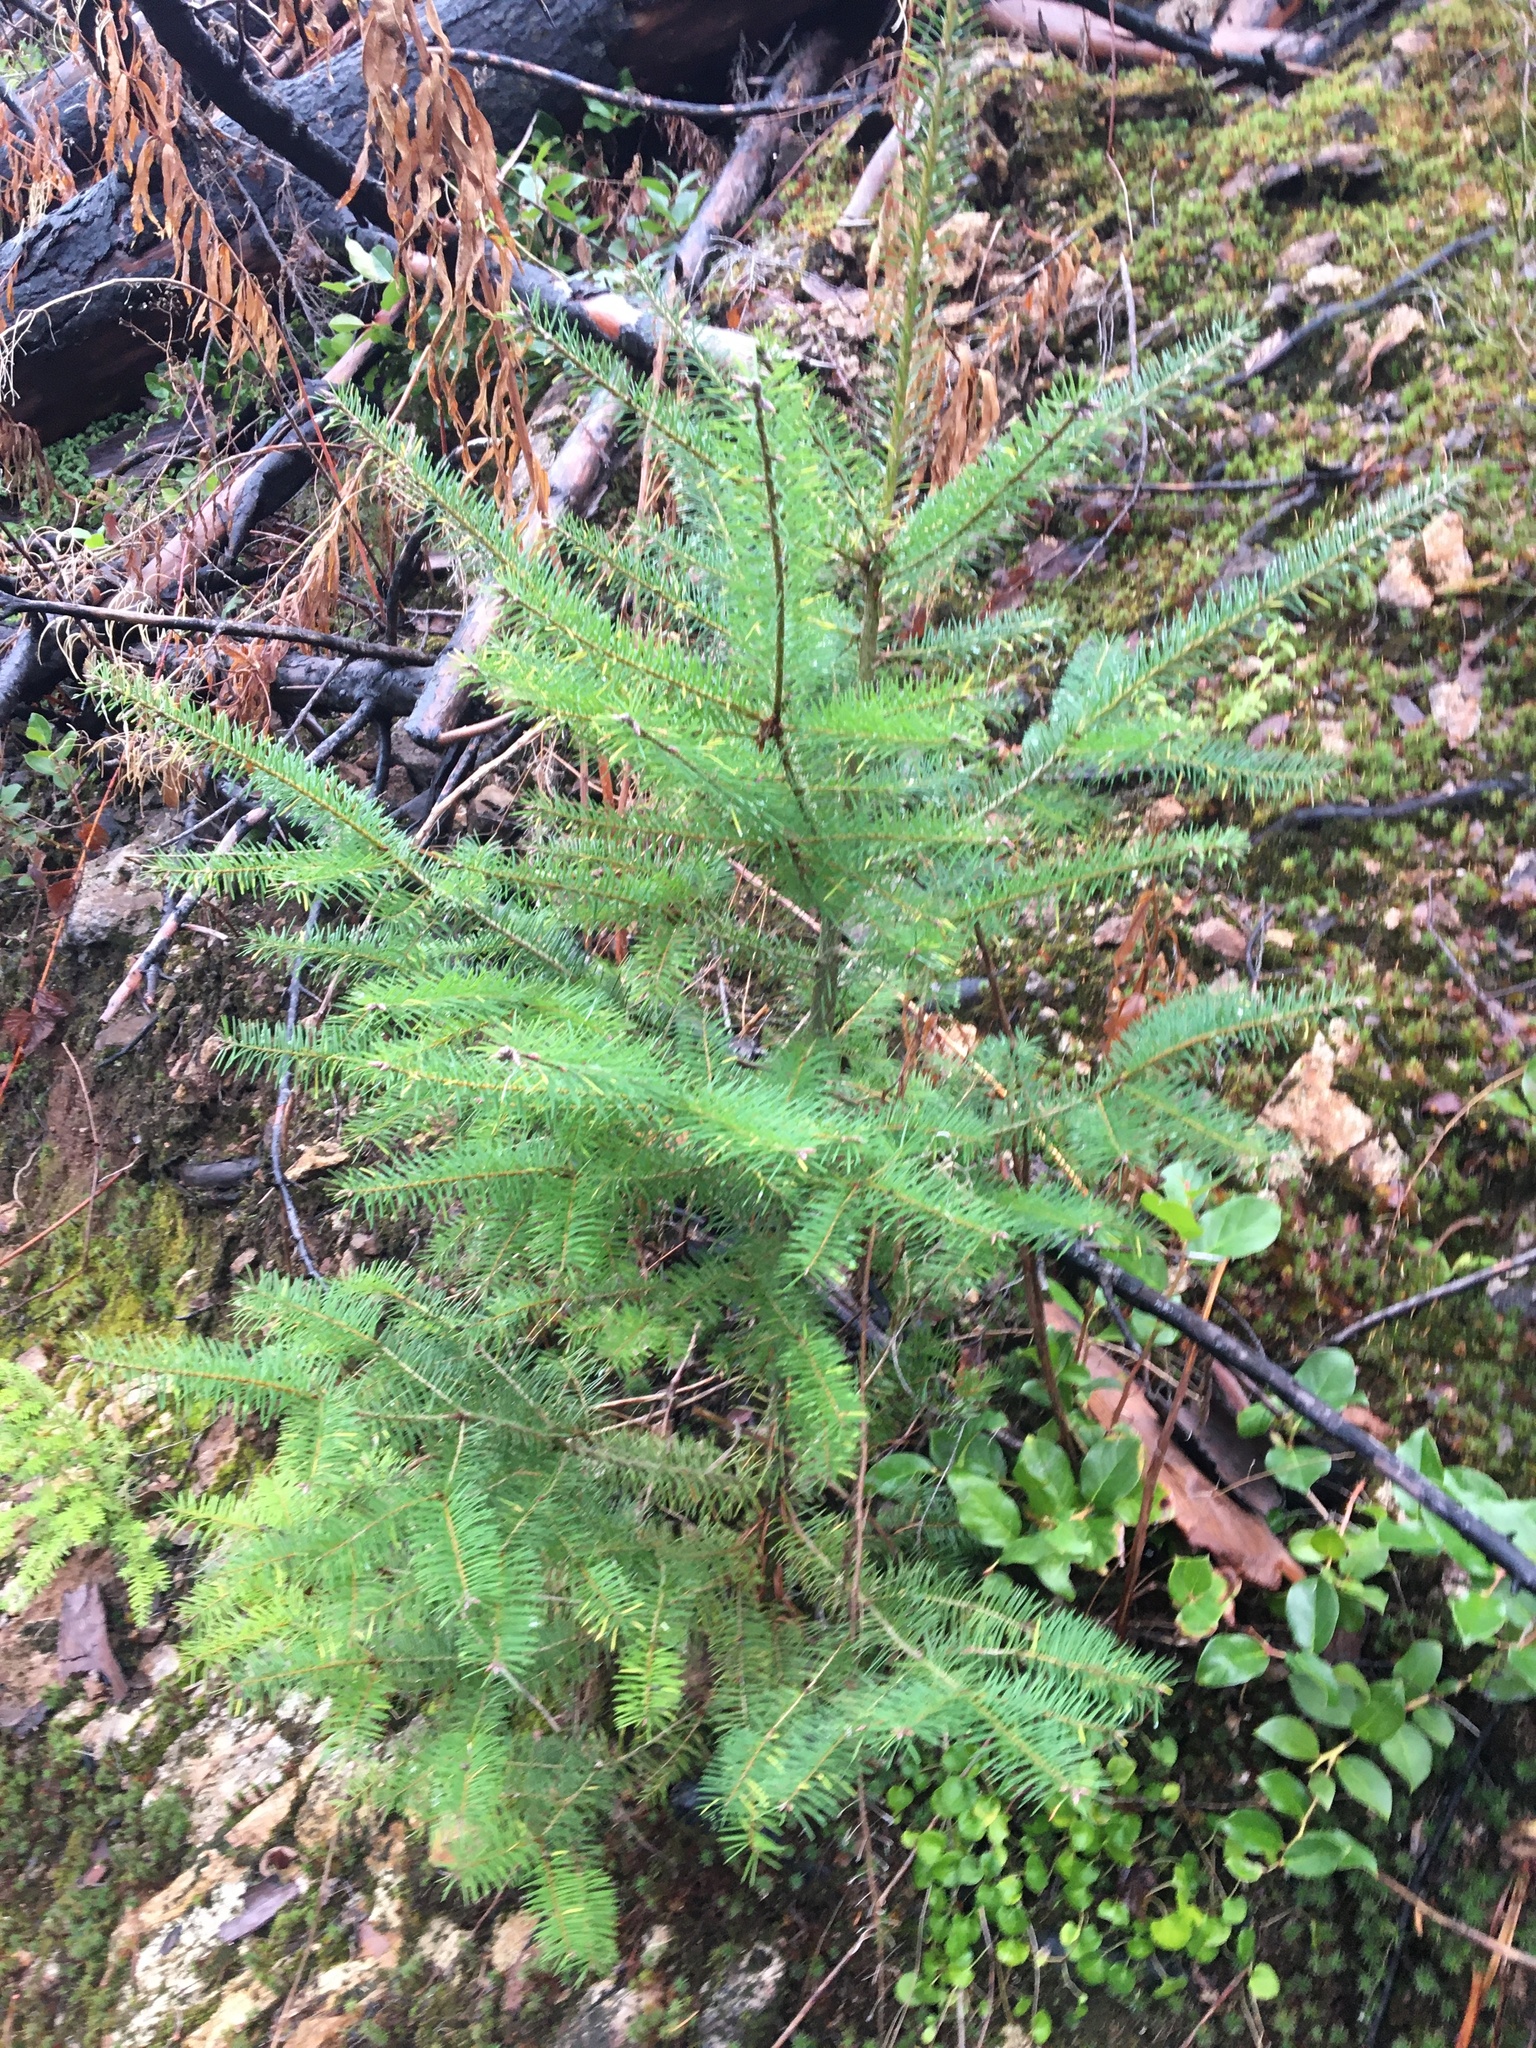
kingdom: Plantae
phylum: Tracheophyta
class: Pinopsida
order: Pinales
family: Pinaceae
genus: Pseudotsuga
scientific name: Pseudotsuga menziesii
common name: Douglas fir
